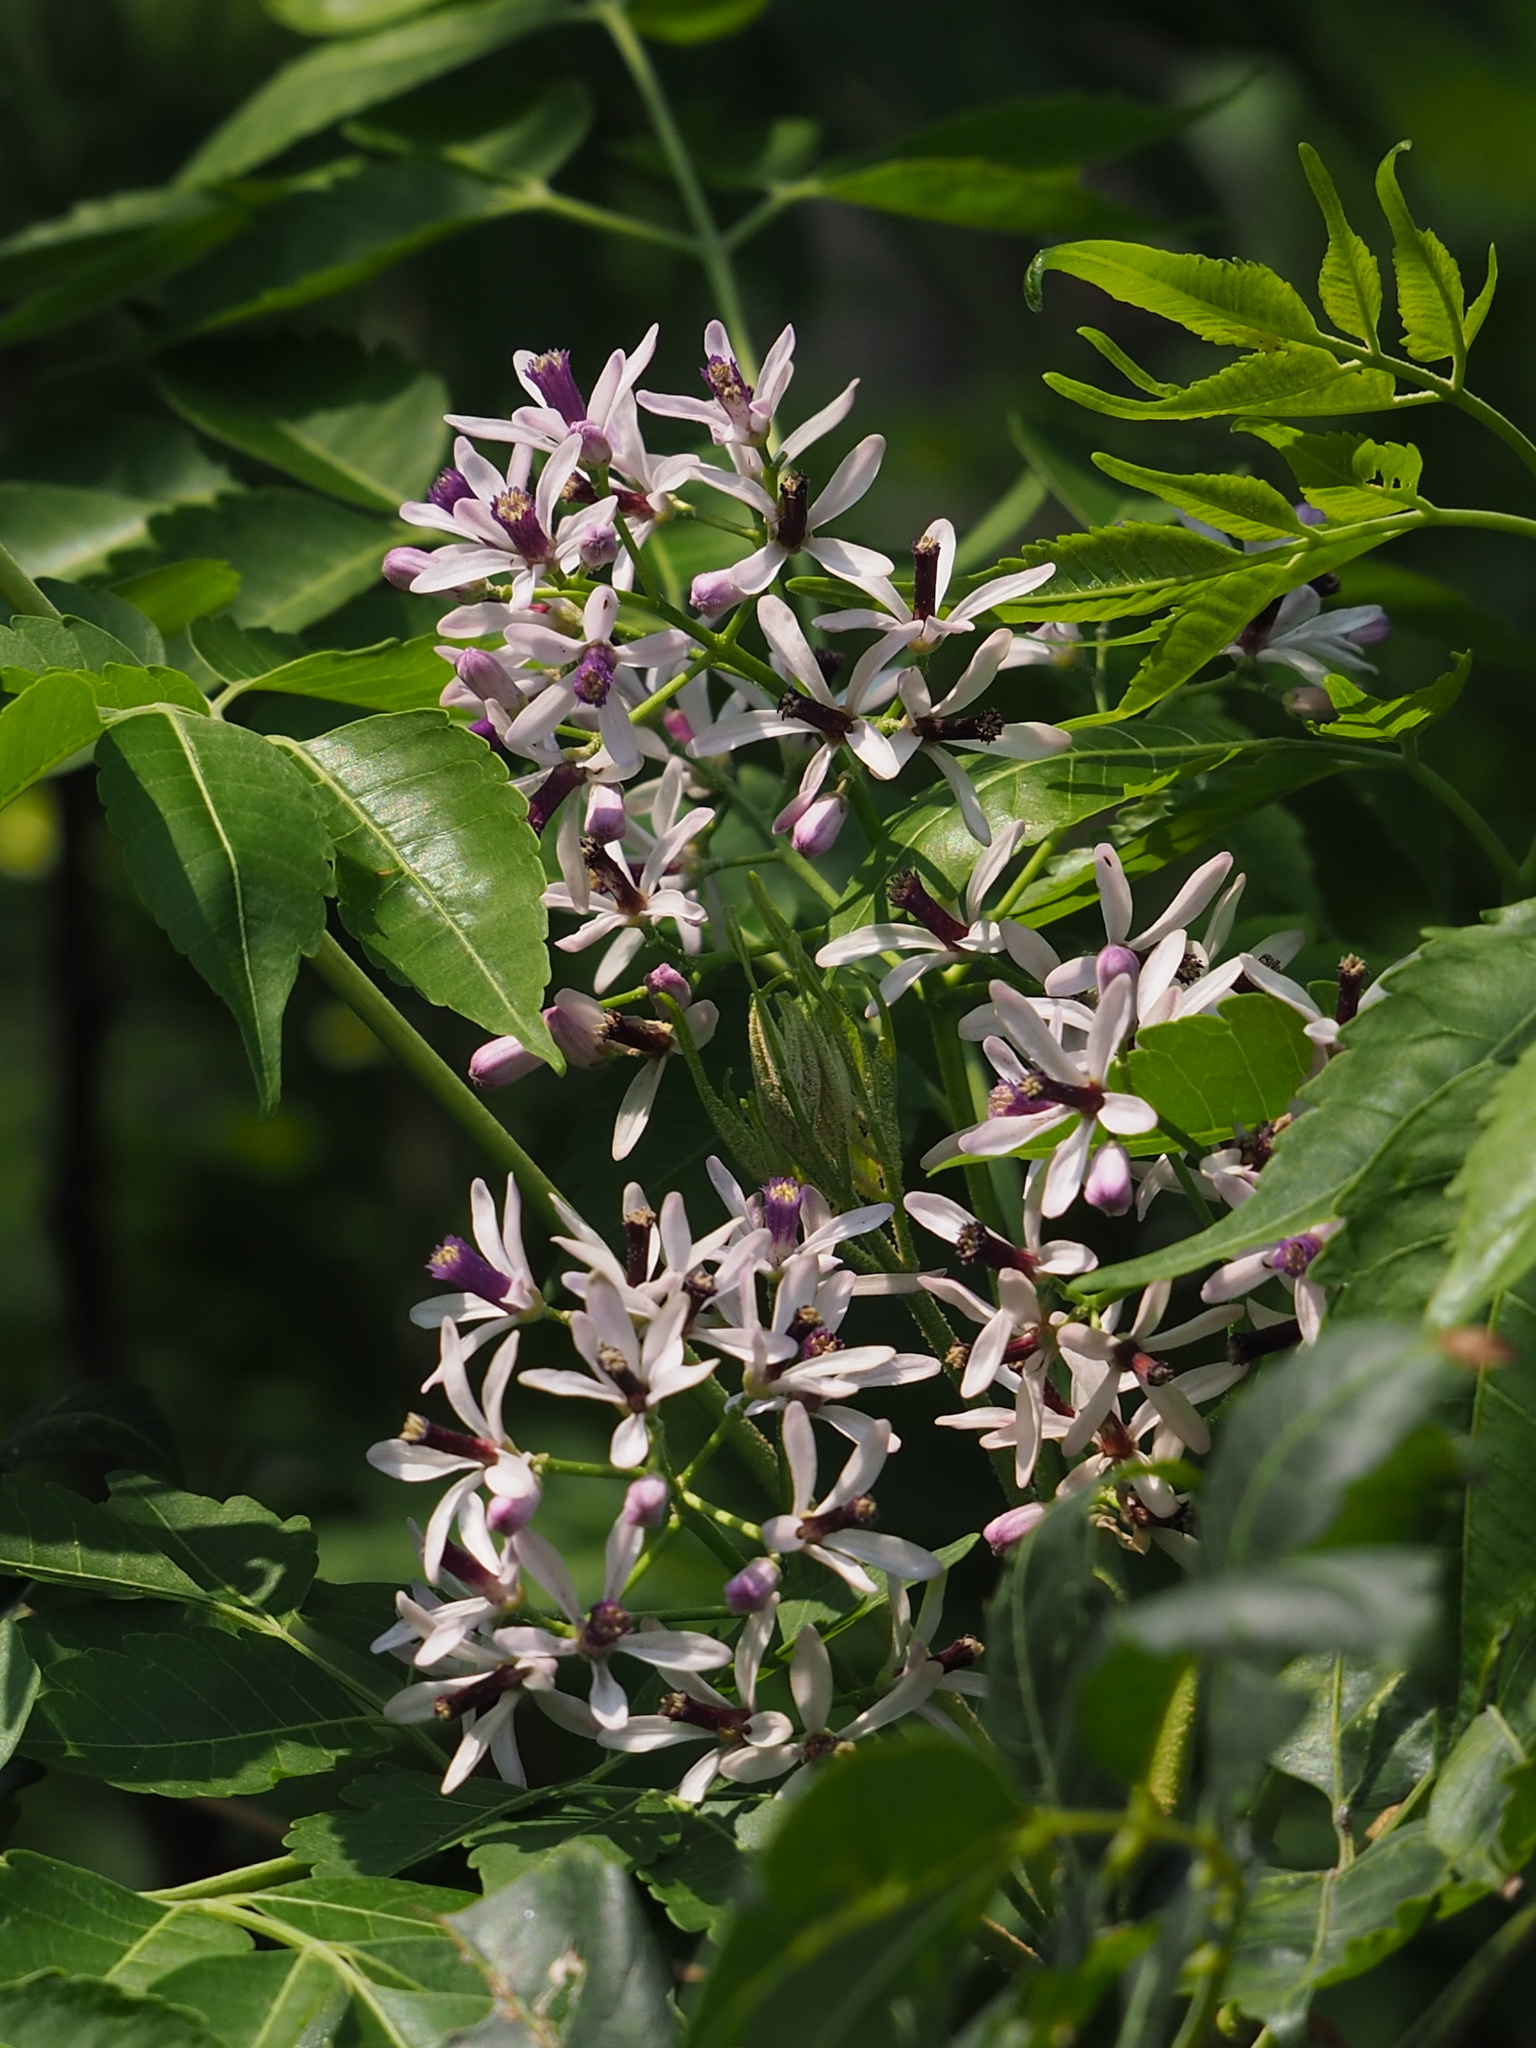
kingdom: Plantae
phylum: Tracheophyta
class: Magnoliopsida
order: Sapindales
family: Meliaceae
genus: Melia
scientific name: Melia azedarach
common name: Chinaberrytree
